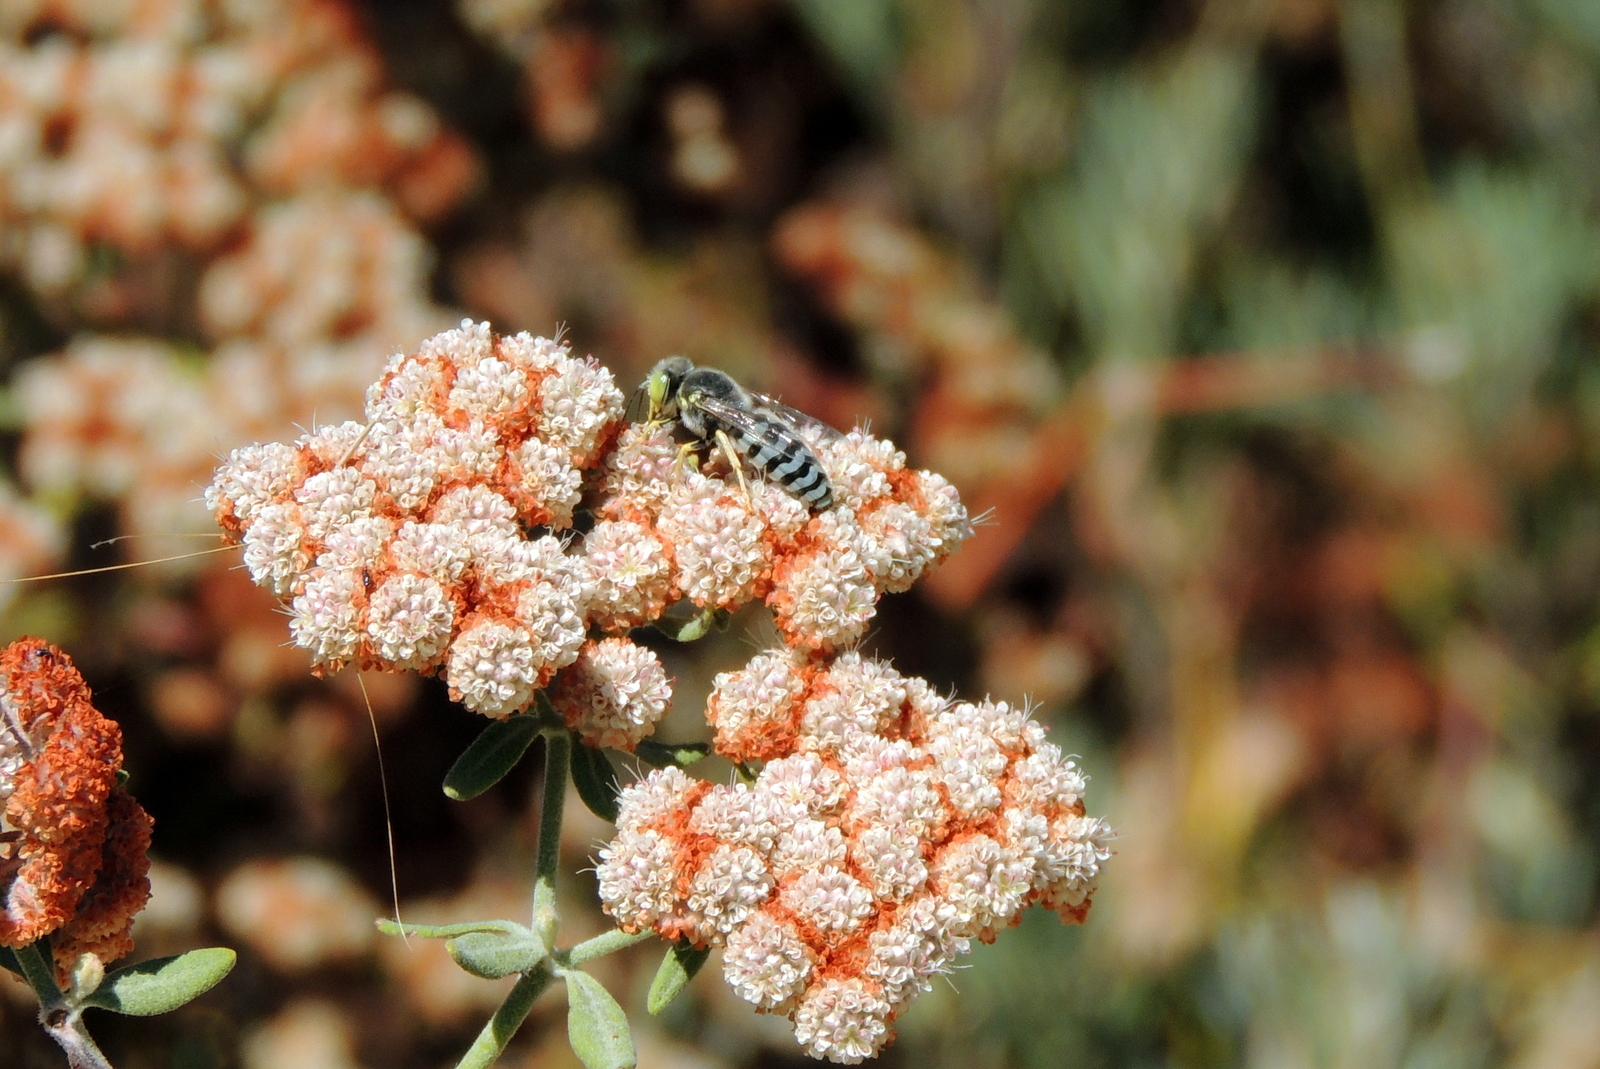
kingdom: Animalia
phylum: Arthropoda
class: Insecta
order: Hymenoptera
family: Crabronidae
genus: Bembix
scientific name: Bembix americana
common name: American sand wasp
